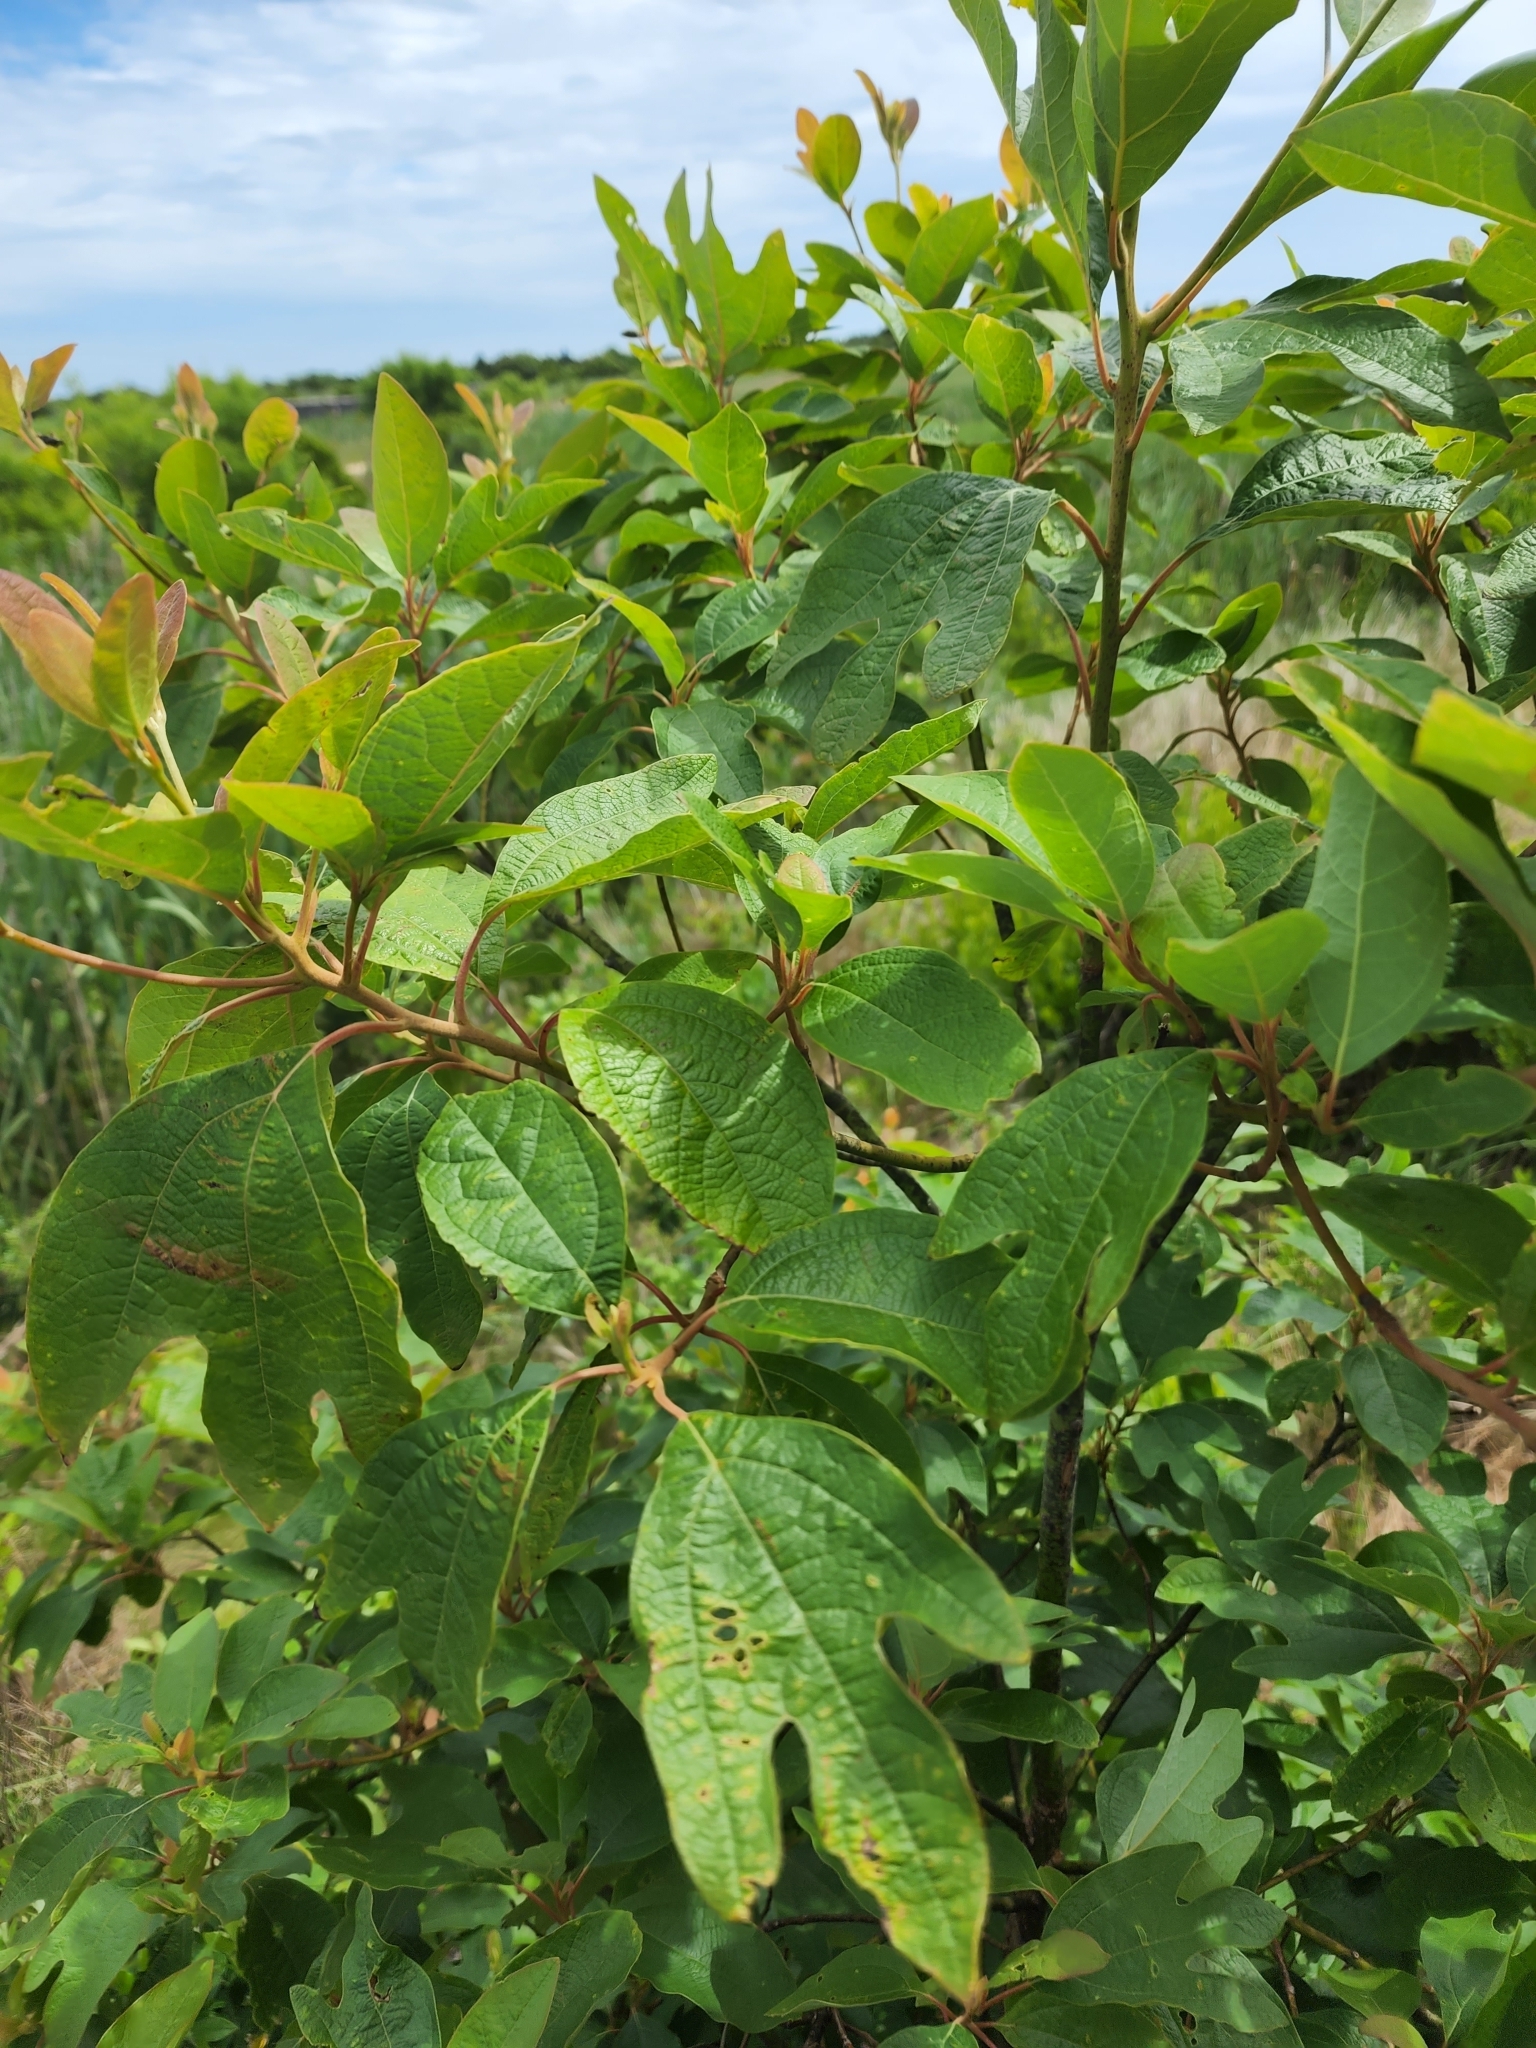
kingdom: Plantae
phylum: Tracheophyta
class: Magnoliopsida
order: Laurales
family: Lauraceae
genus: Sassafras
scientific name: Sassafras albidum
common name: Sassafras
